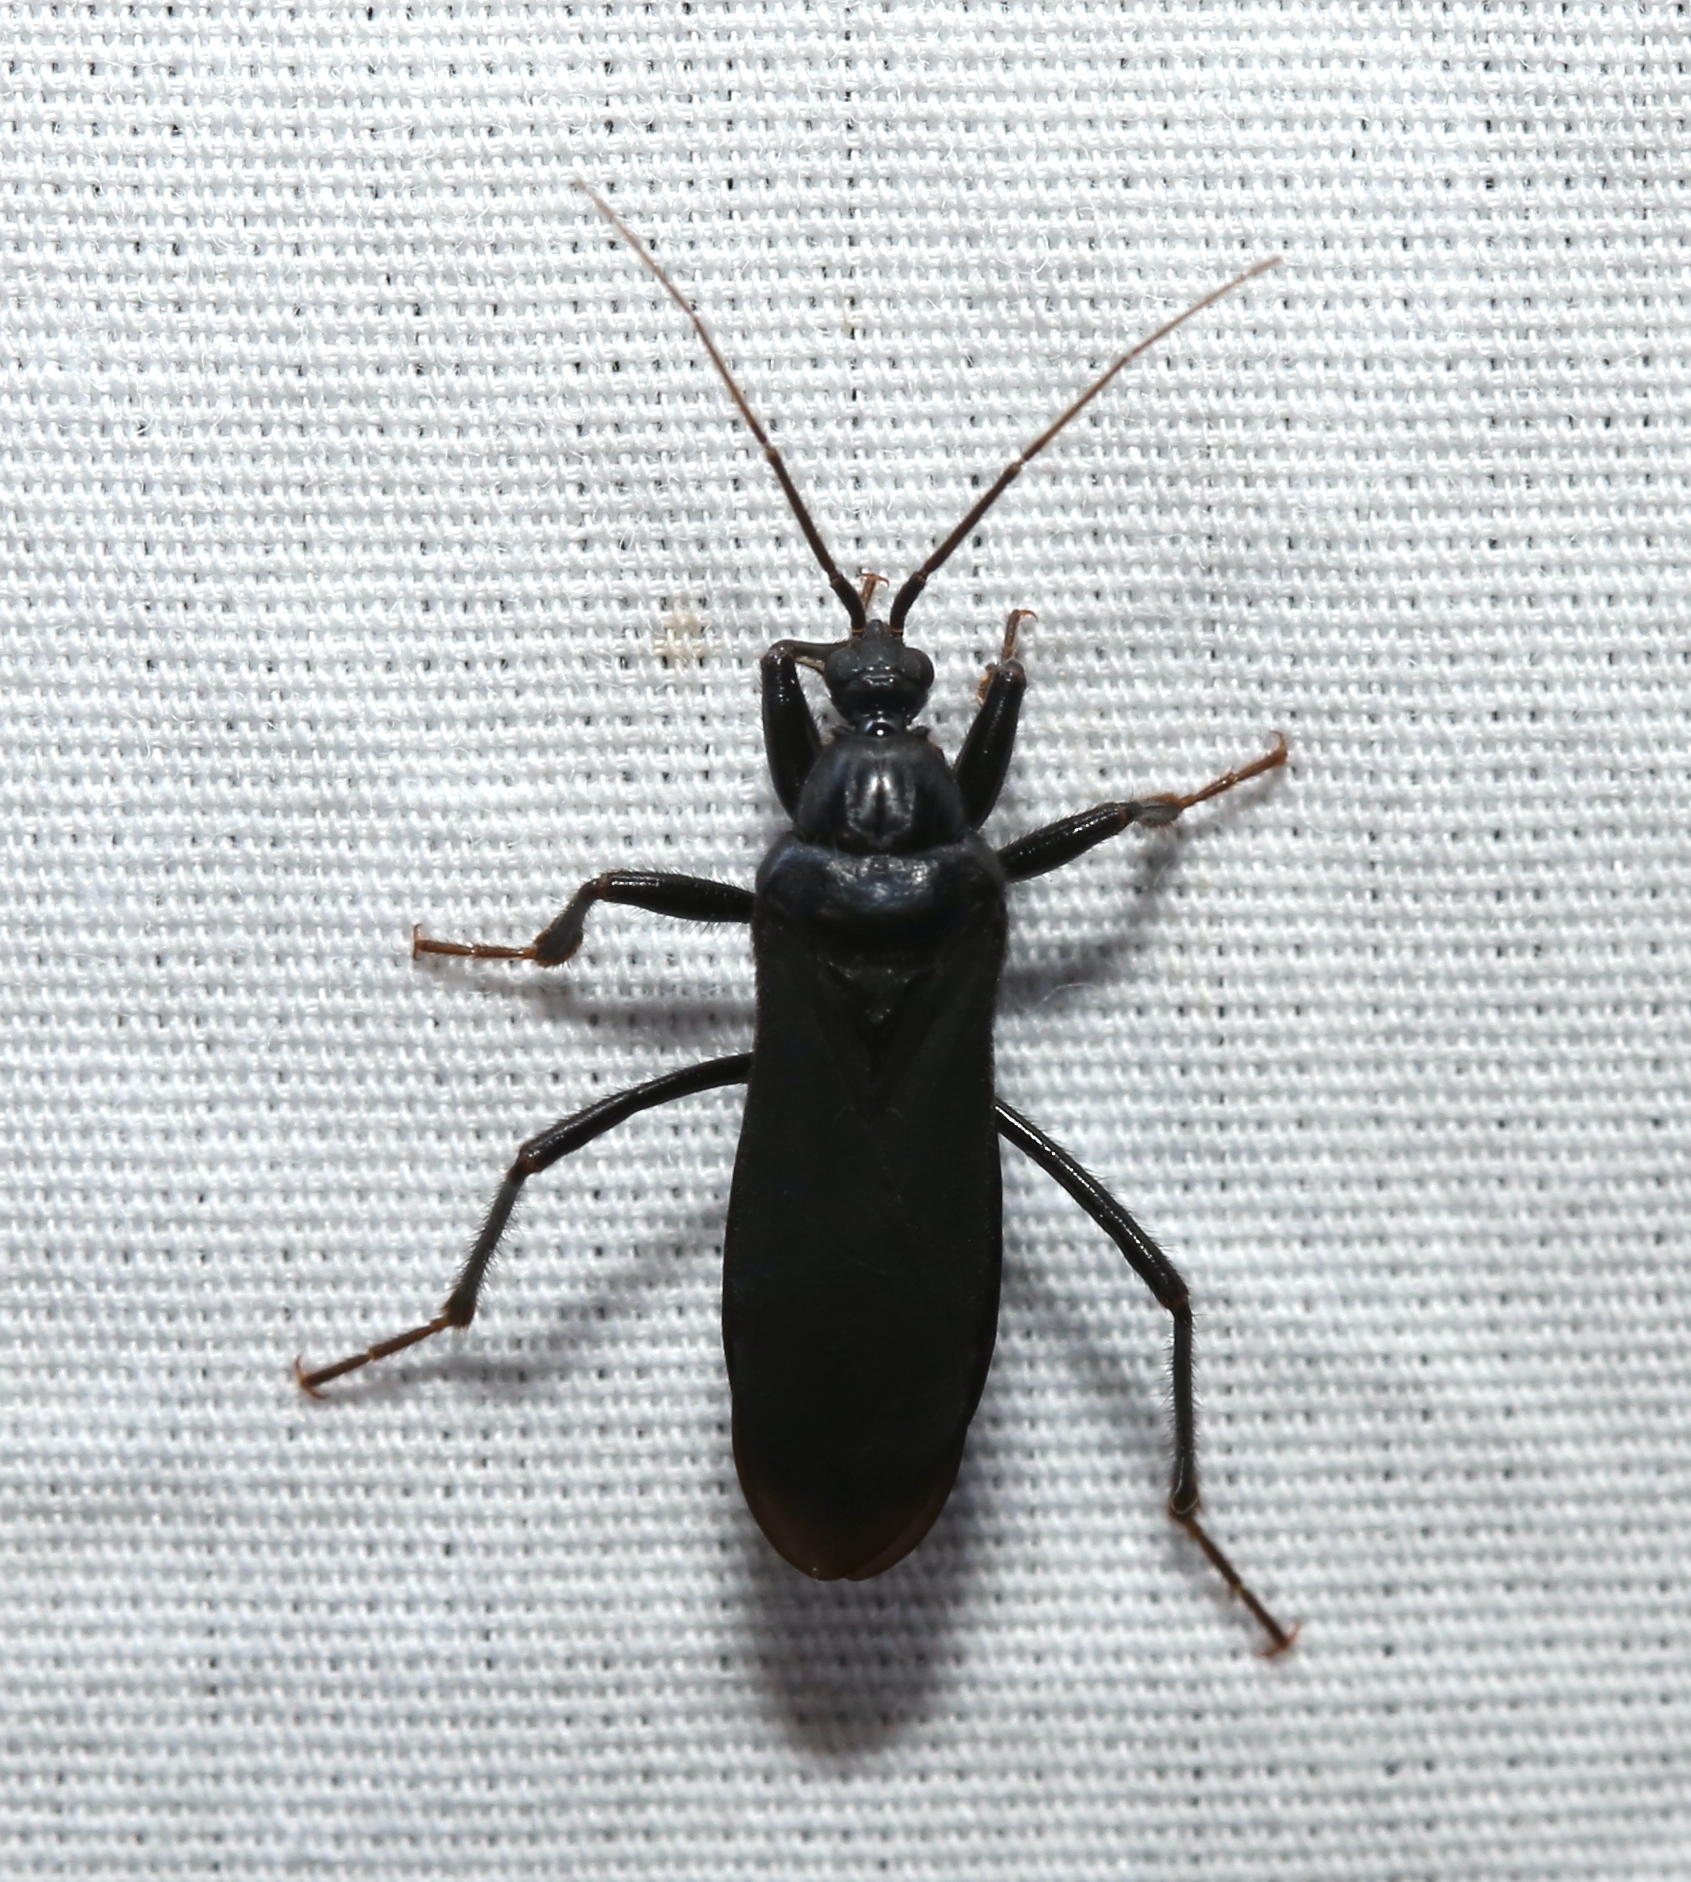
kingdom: Animalia
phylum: Arthropoda
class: Insecta
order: Hemiptera
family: Reduviidae
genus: Melanolestes
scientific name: Melanolestes picipes
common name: Assassin bug
